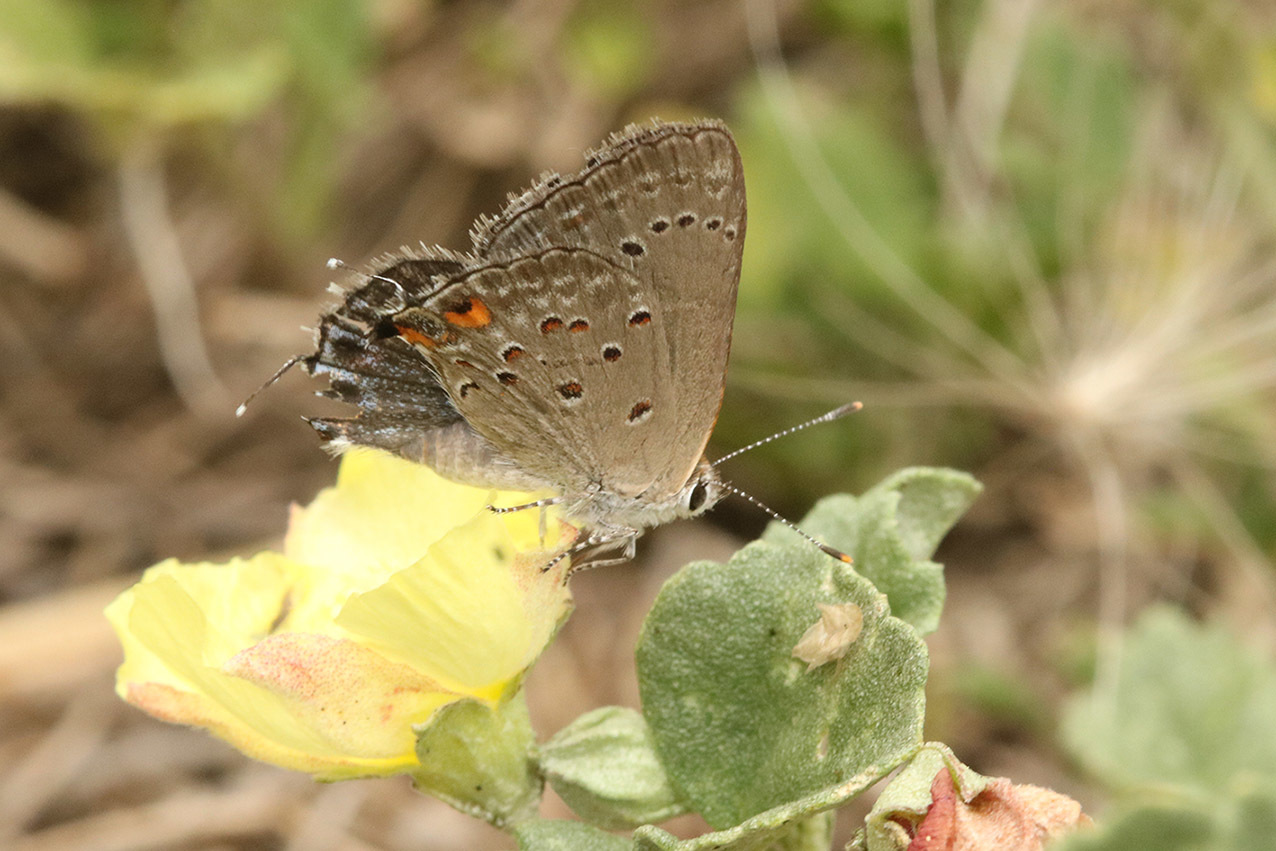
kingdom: Animalia
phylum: Arthropoda
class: Insecta
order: Lepidoptera
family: Lycaenidae
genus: Strymon
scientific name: Strymon eurytulus
